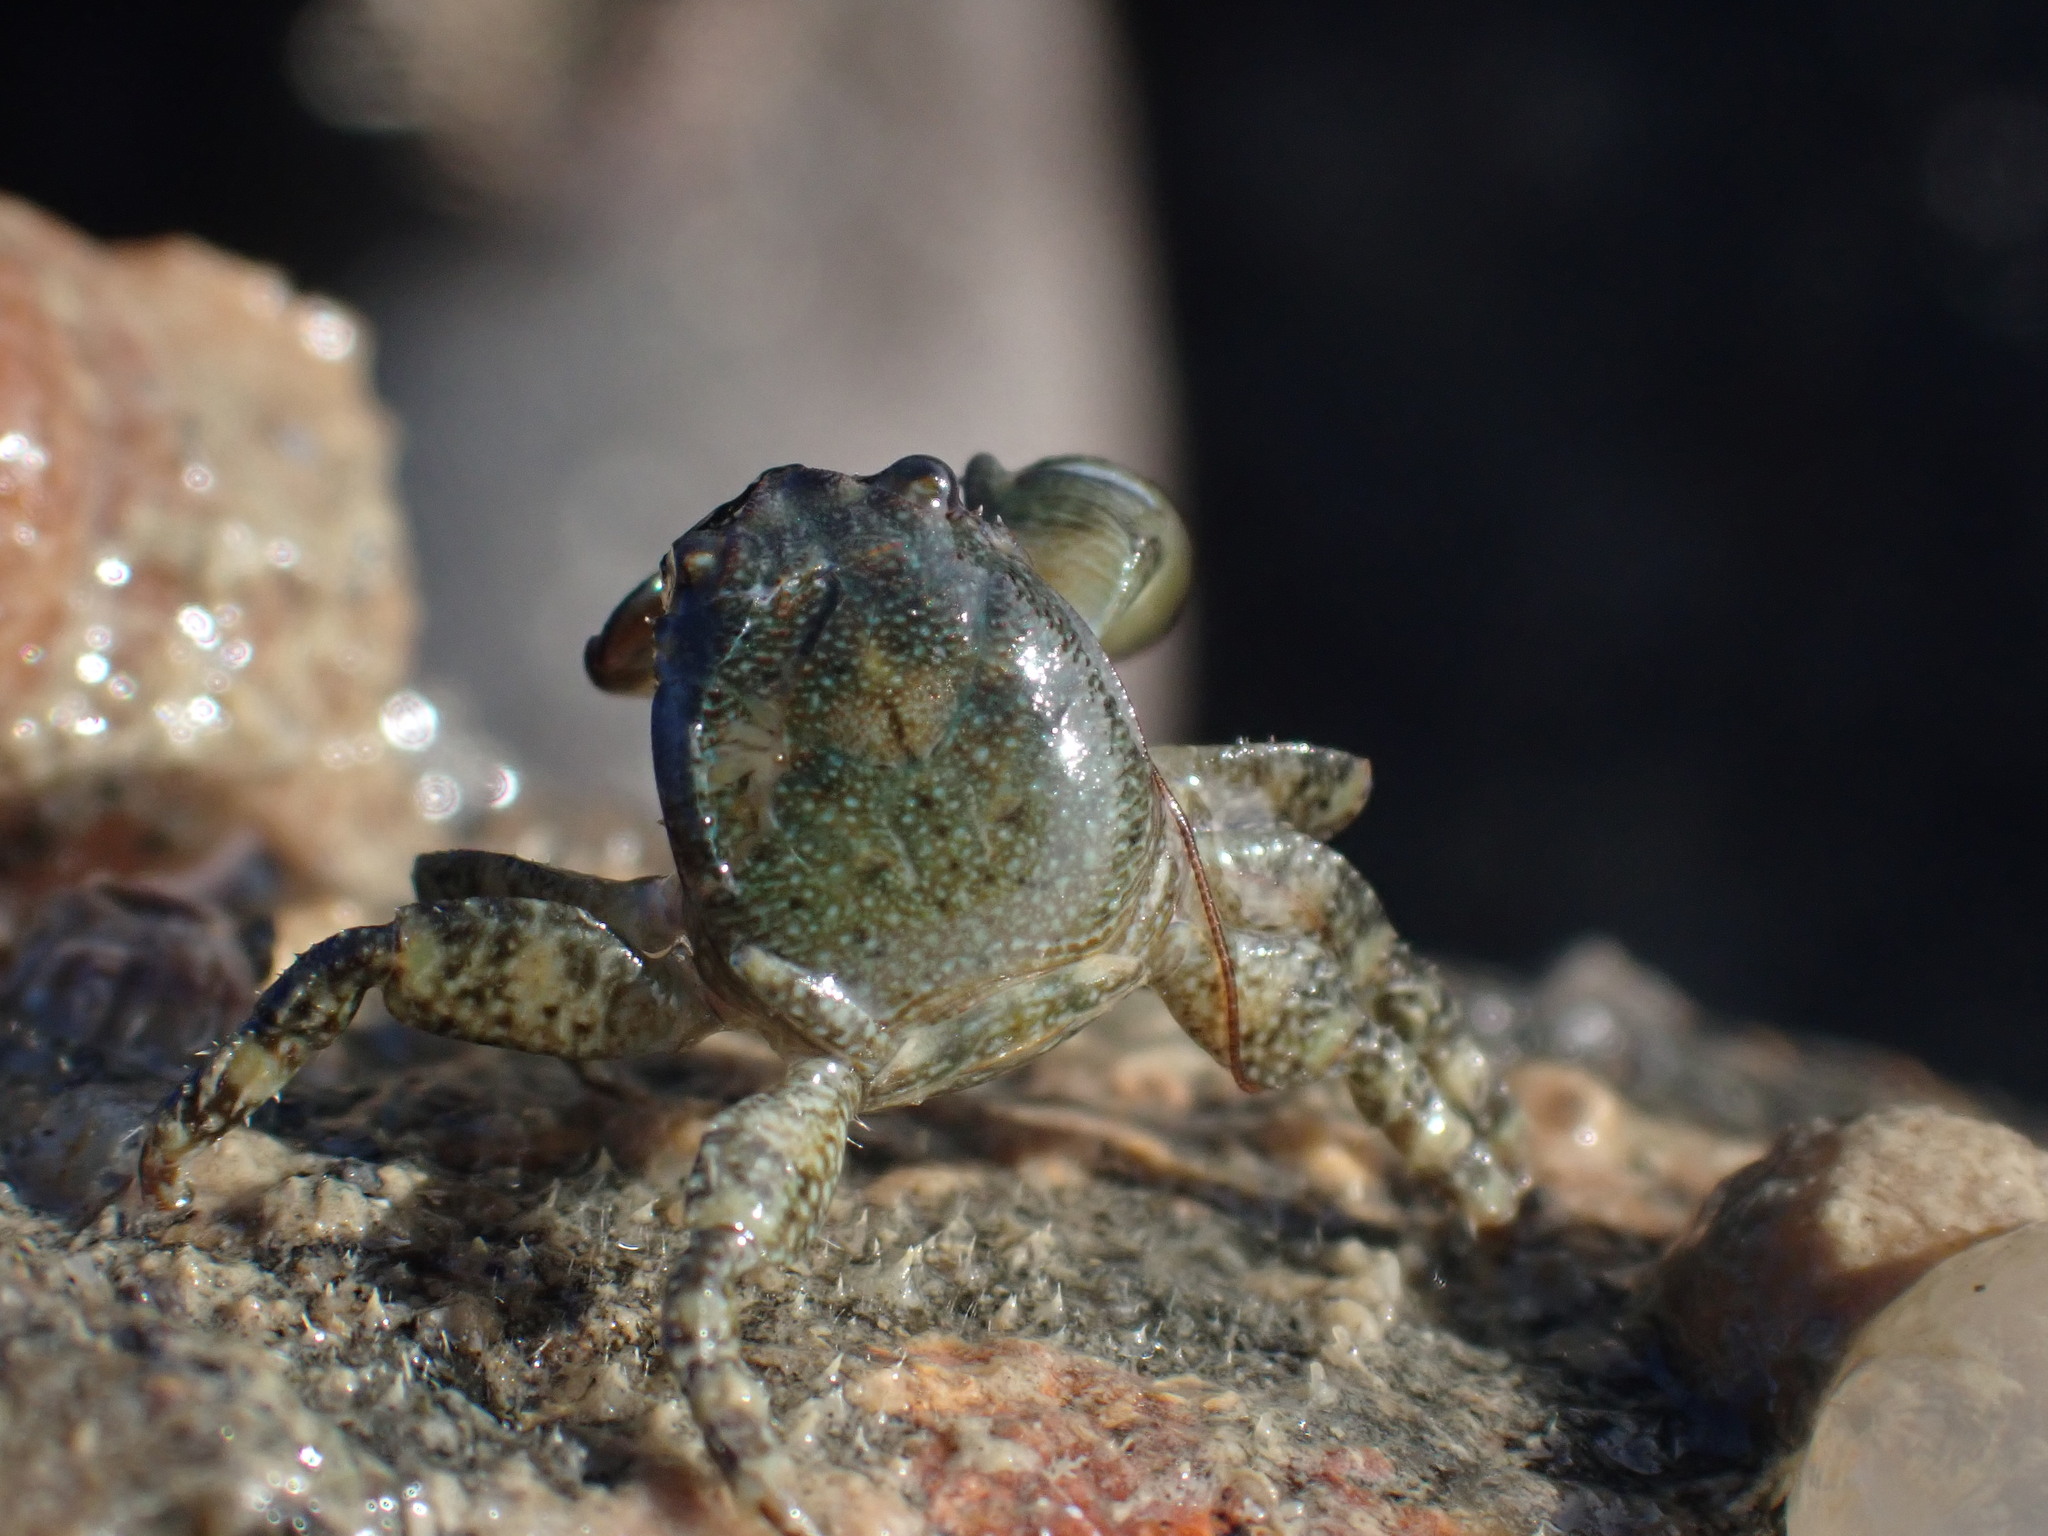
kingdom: Animalia
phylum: Arthropoda
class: Malacostraca
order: Decapoda
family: Porcellanidae
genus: Petrolisthes
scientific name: Petrolisthes elongatus
